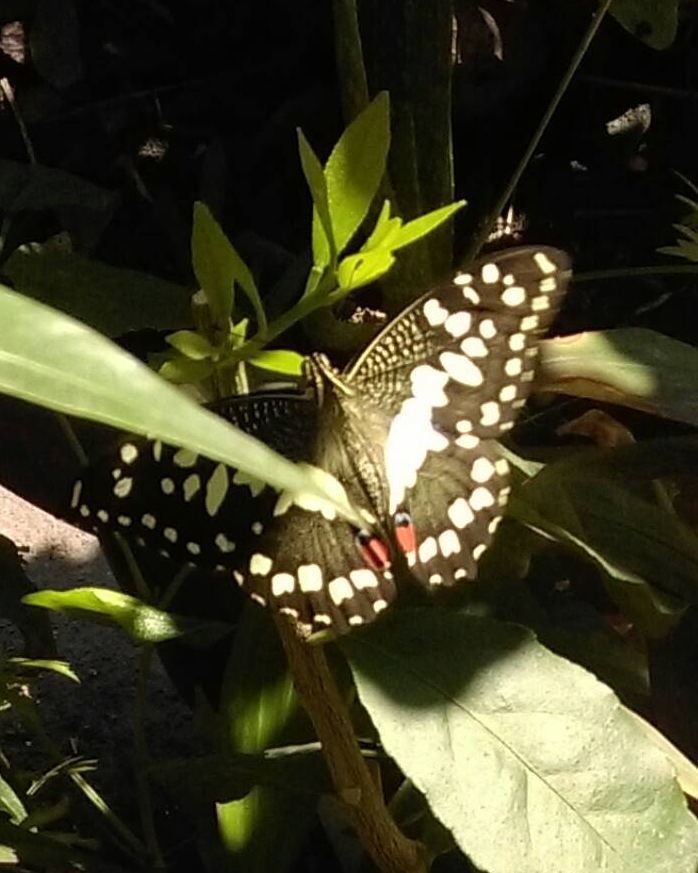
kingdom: Animalia
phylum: Arthropoda
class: Insecta
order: Lepidoptera
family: Papilionidae
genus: Papilio
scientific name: Papilio demoleus
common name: Lime butterfly
